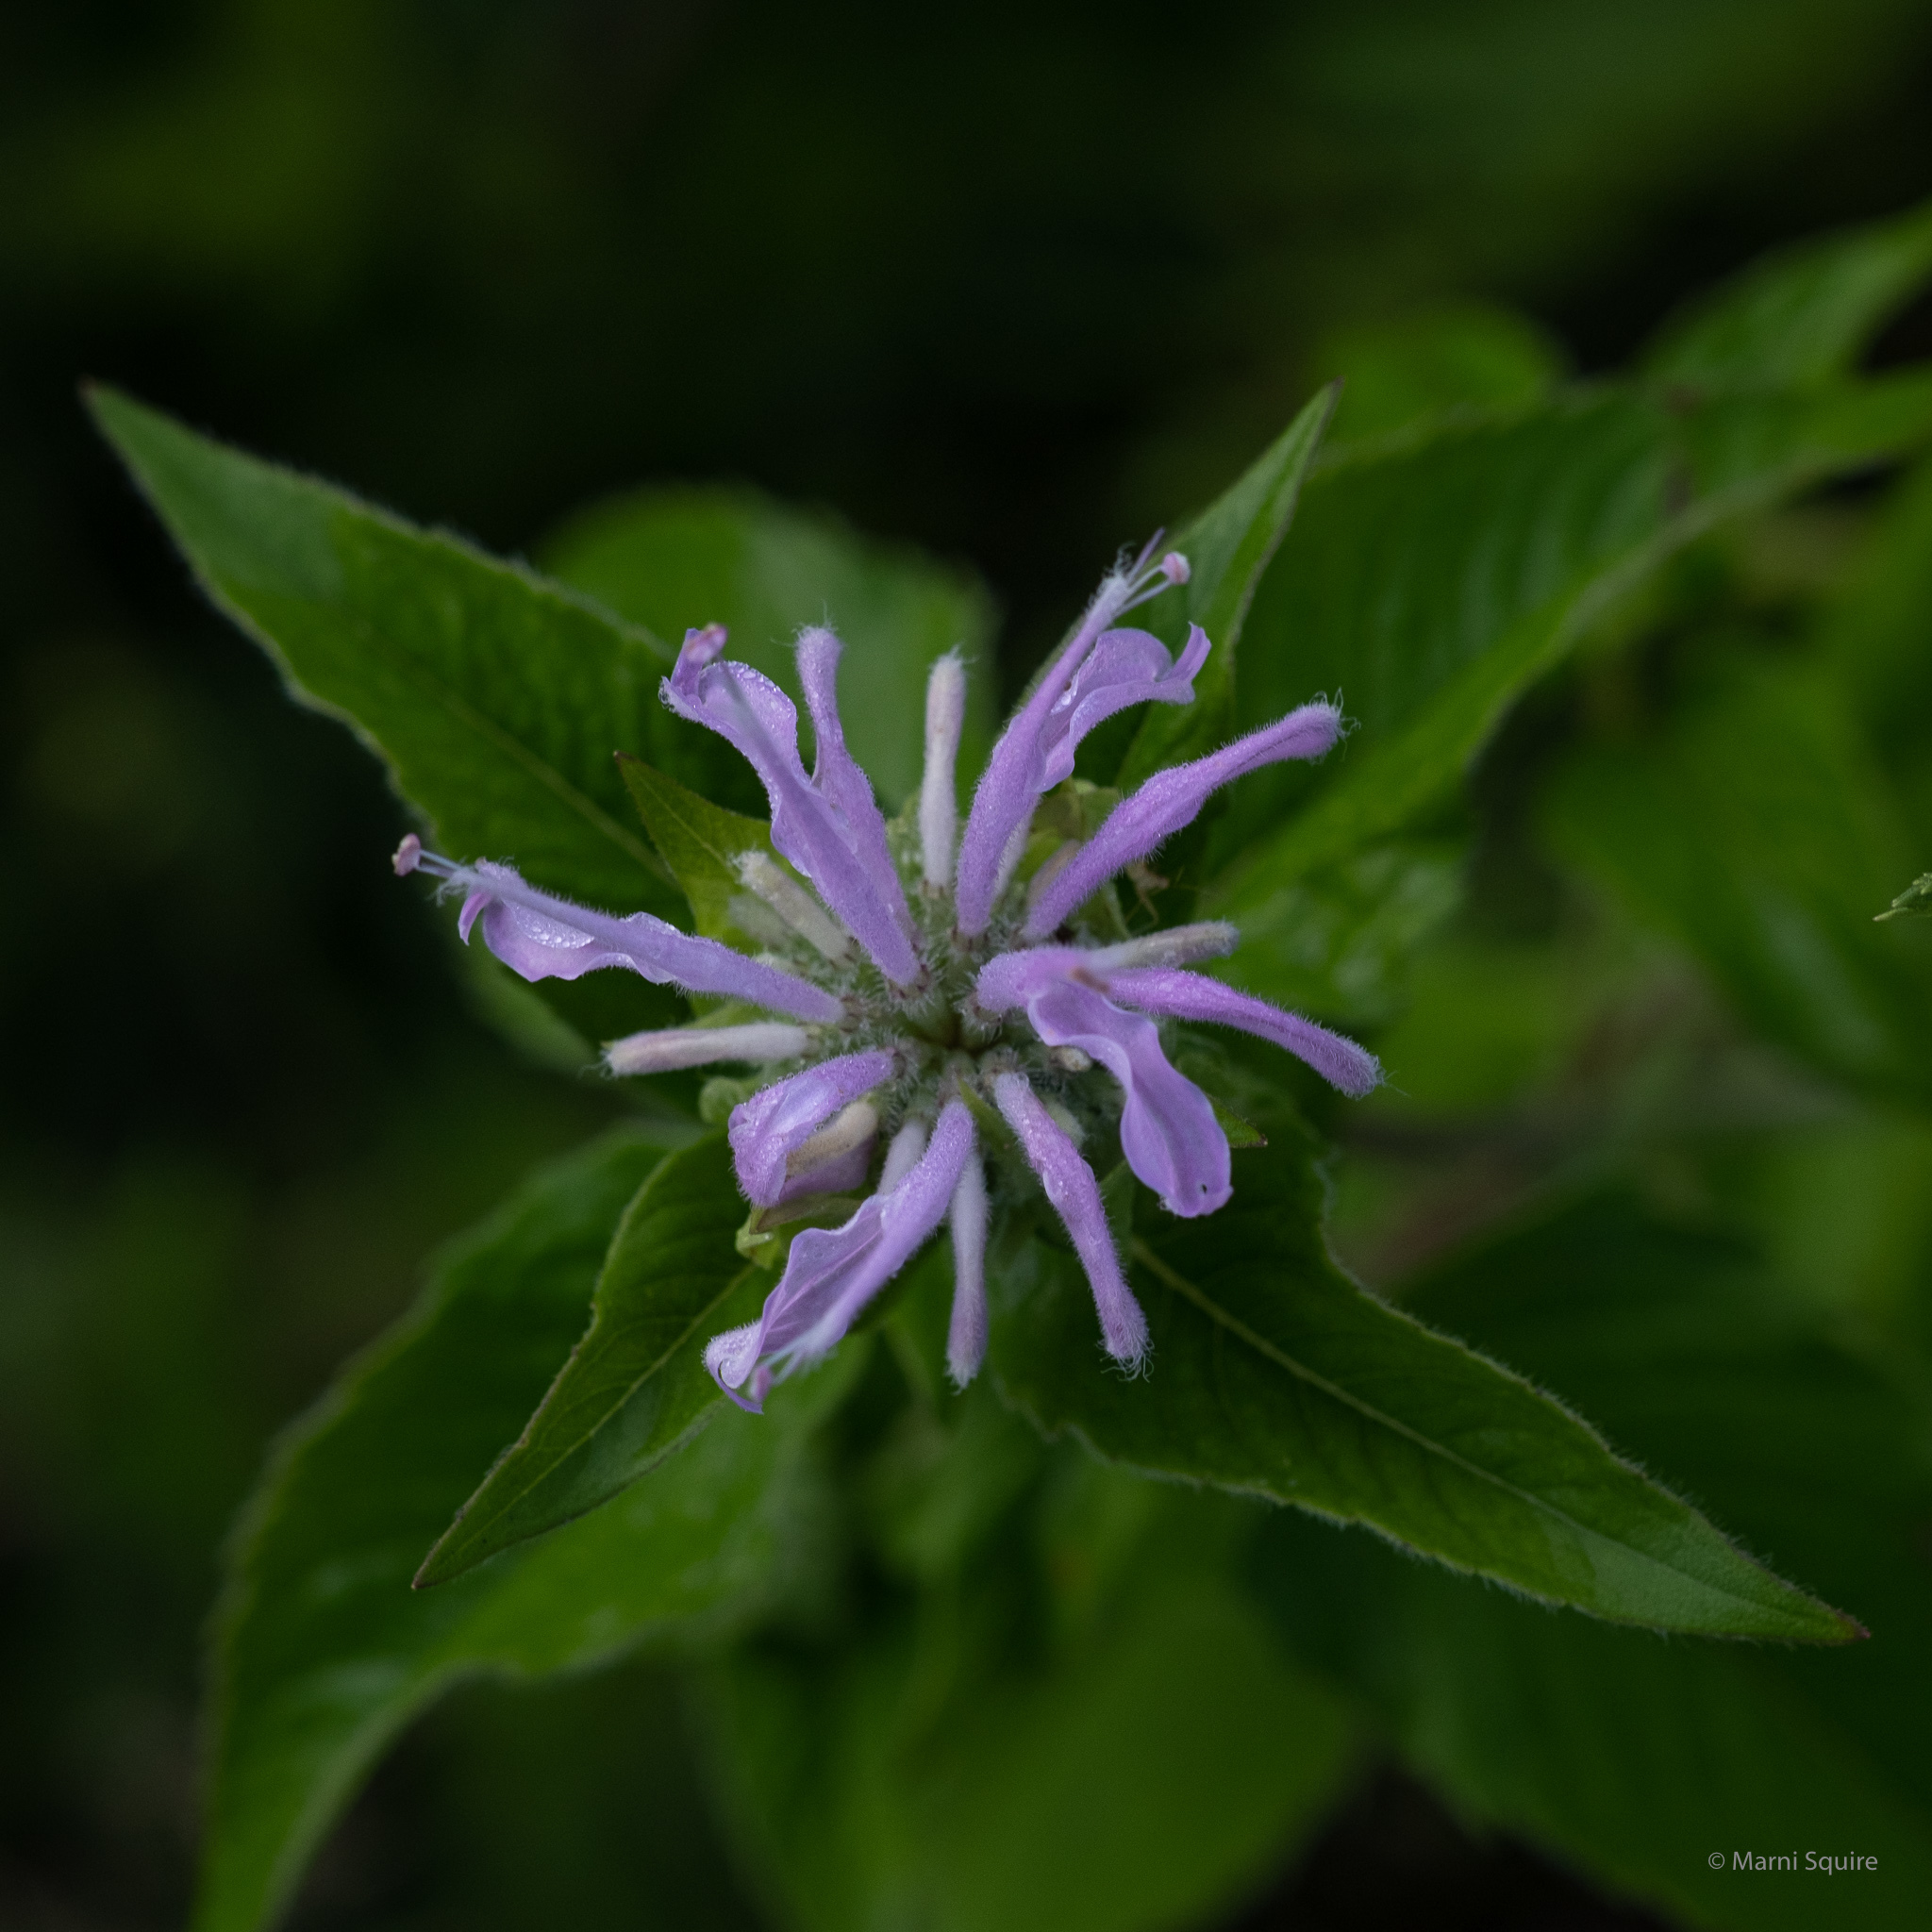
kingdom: Plantae
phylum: Tracheophyta
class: Magnoliopsida
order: Lamiales
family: Lamiaceae
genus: Monarda
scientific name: Monarda fistulosa
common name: Purple beebalm
